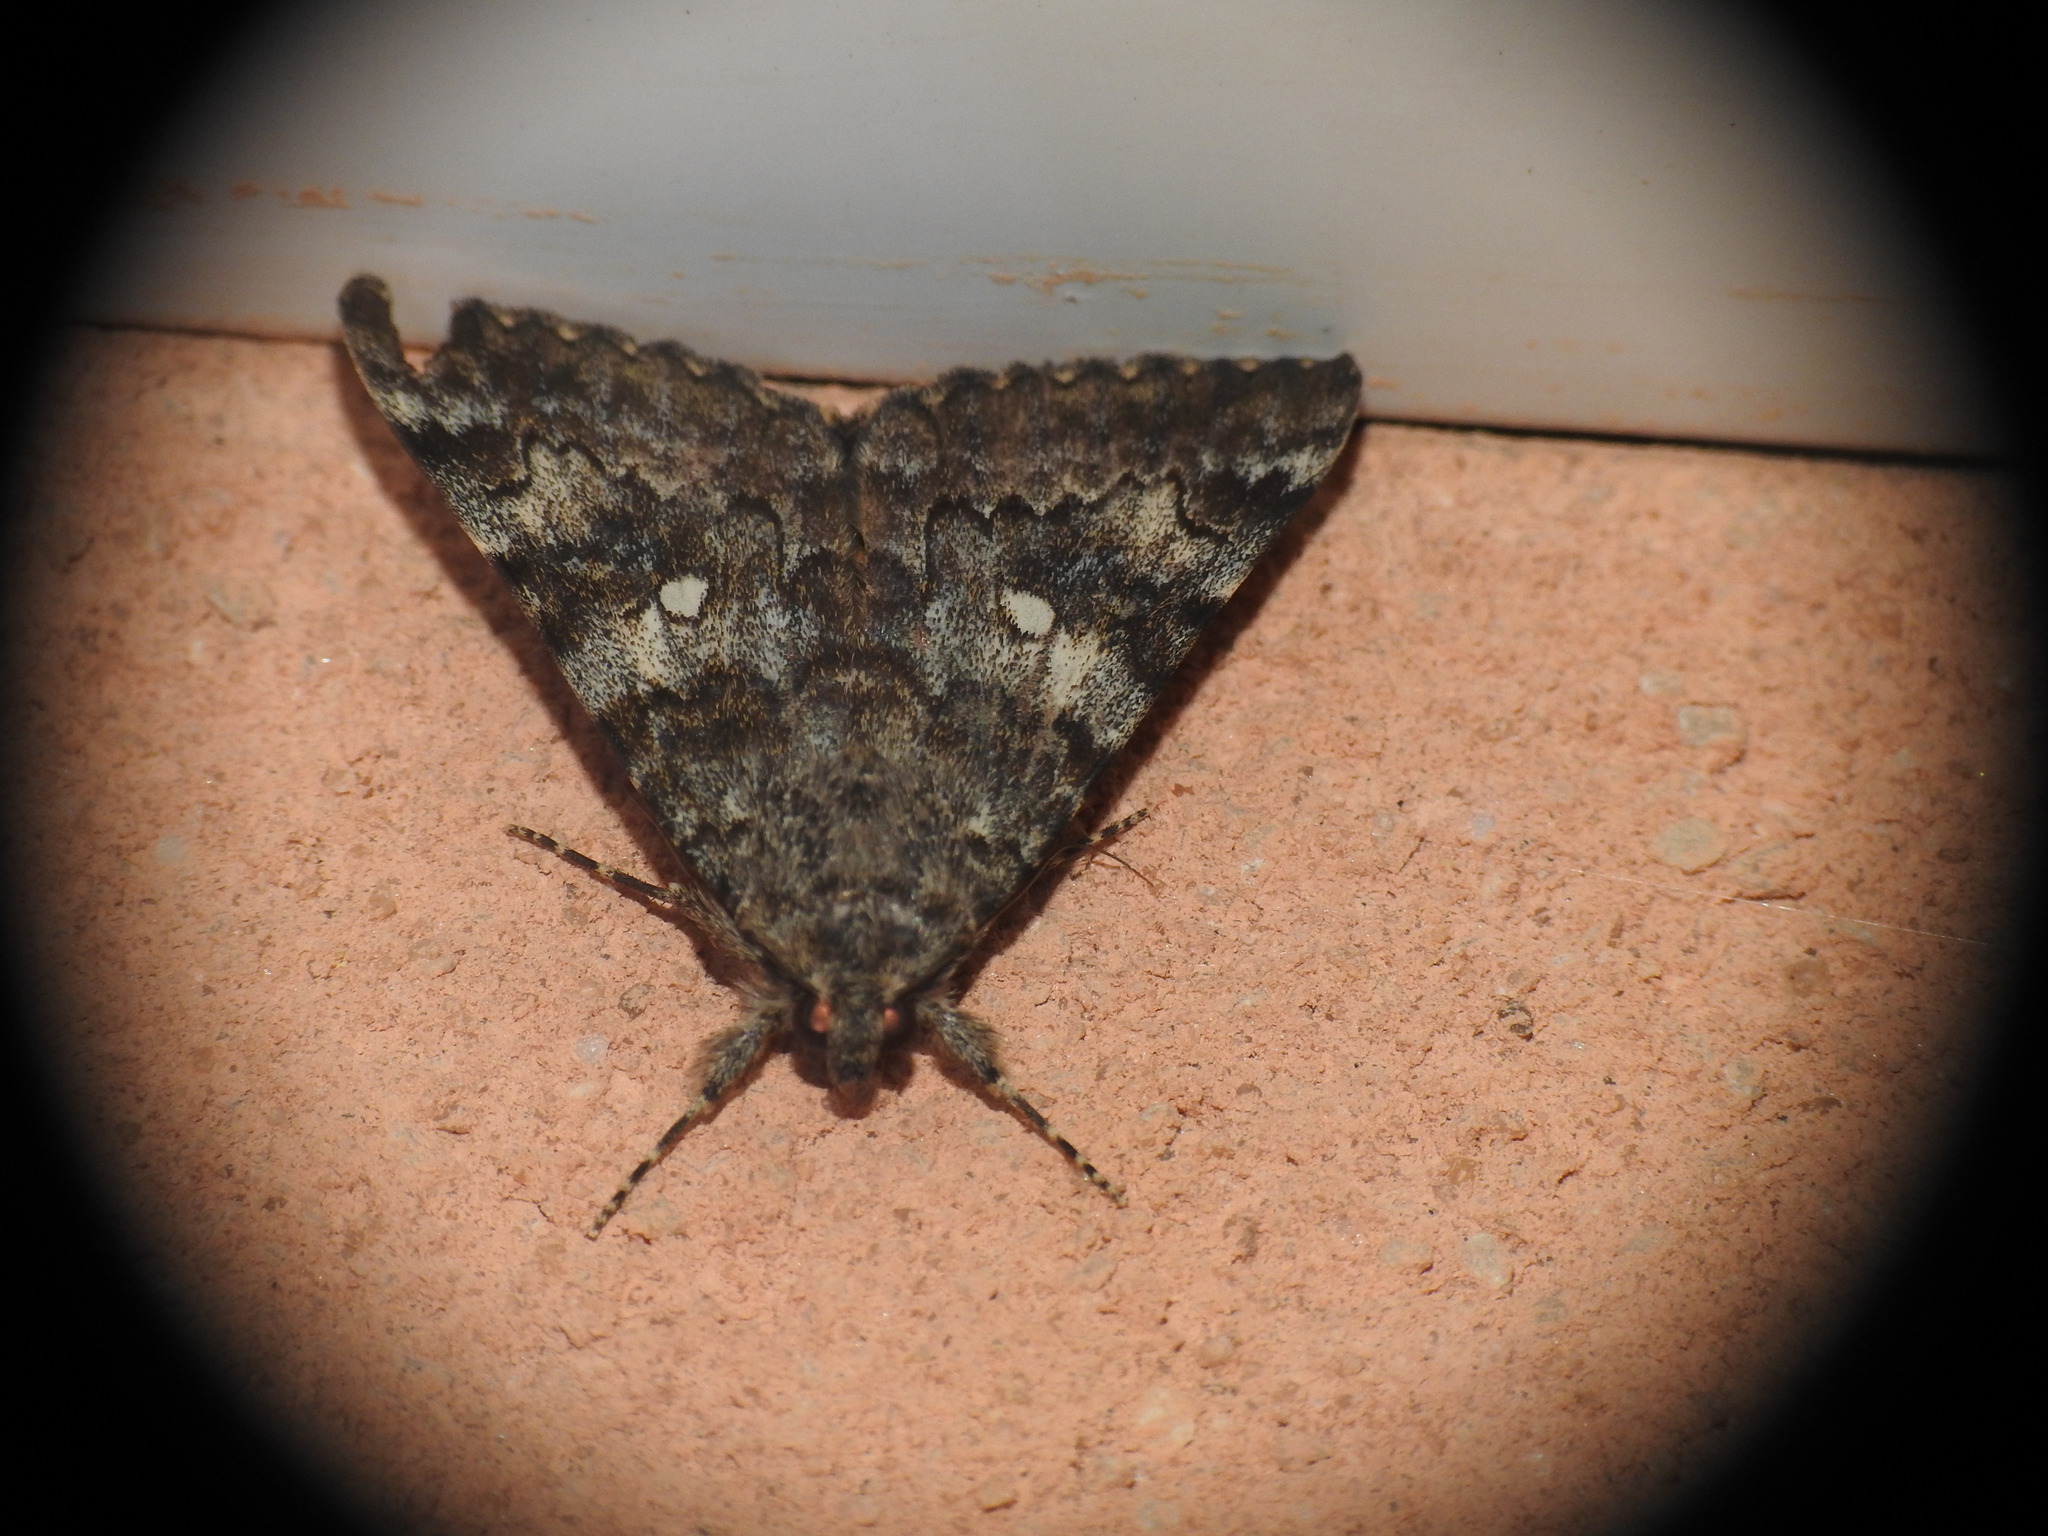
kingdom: Animalia
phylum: Arthropoda
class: Insecta
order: Lepidoptera
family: Erebidae
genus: Catocala
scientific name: Catocala nymphaea
